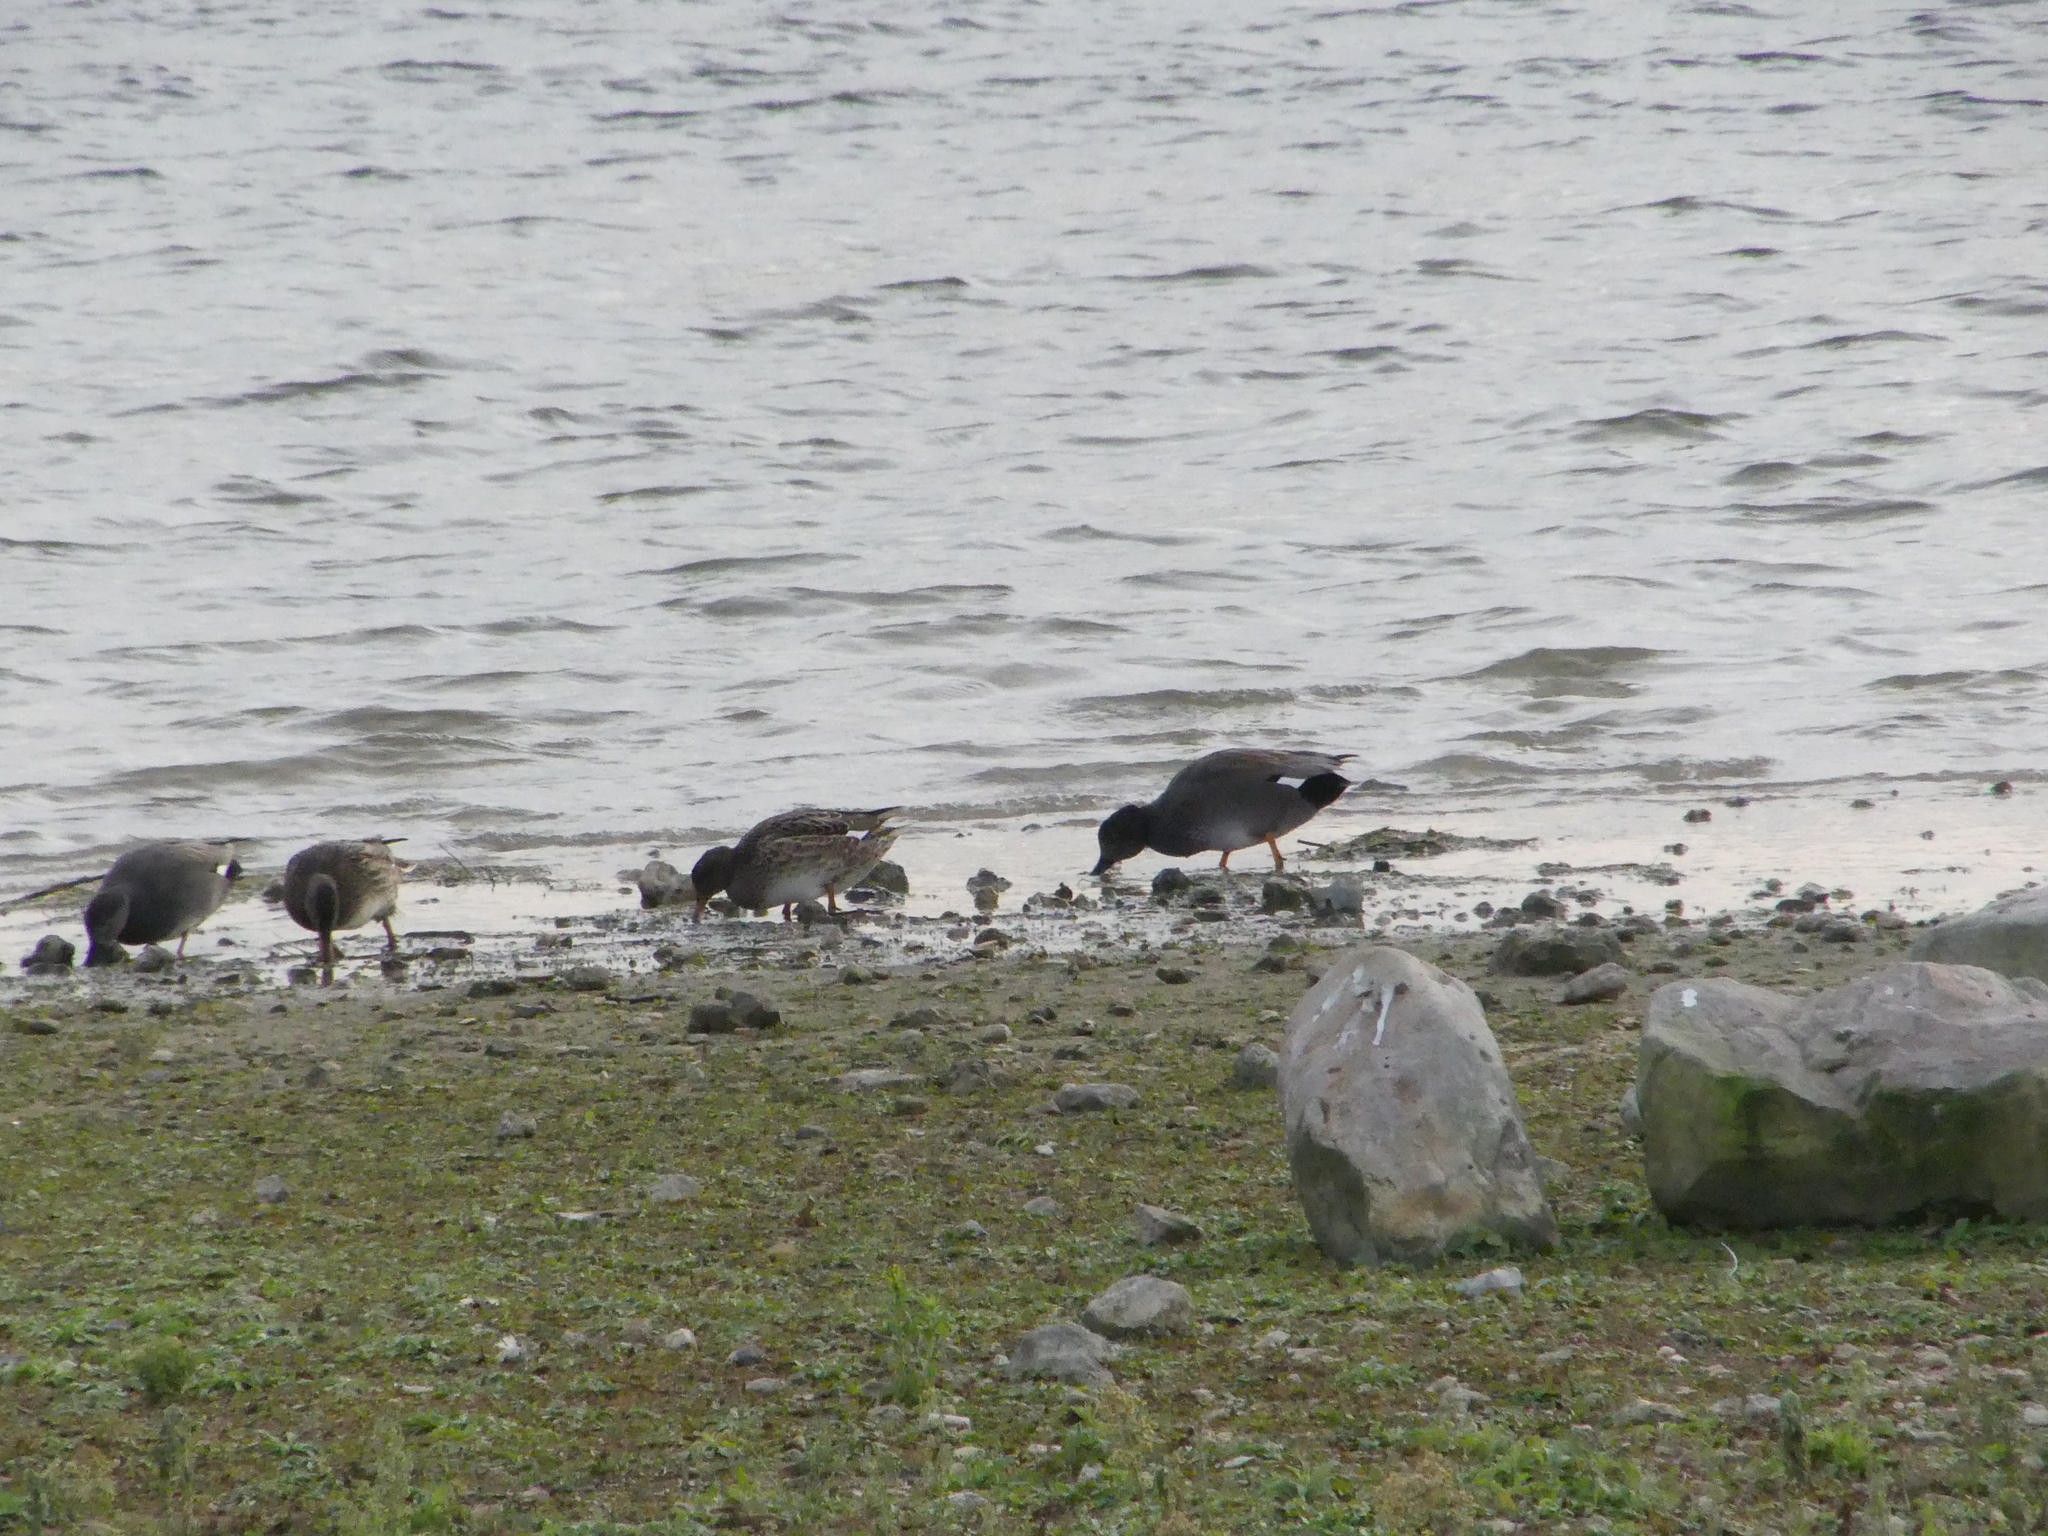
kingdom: Animalia
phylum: Chordata
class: Aves
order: Anseriformes
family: Anatidae
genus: Mareca
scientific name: Mareca strepera
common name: Gadwall
